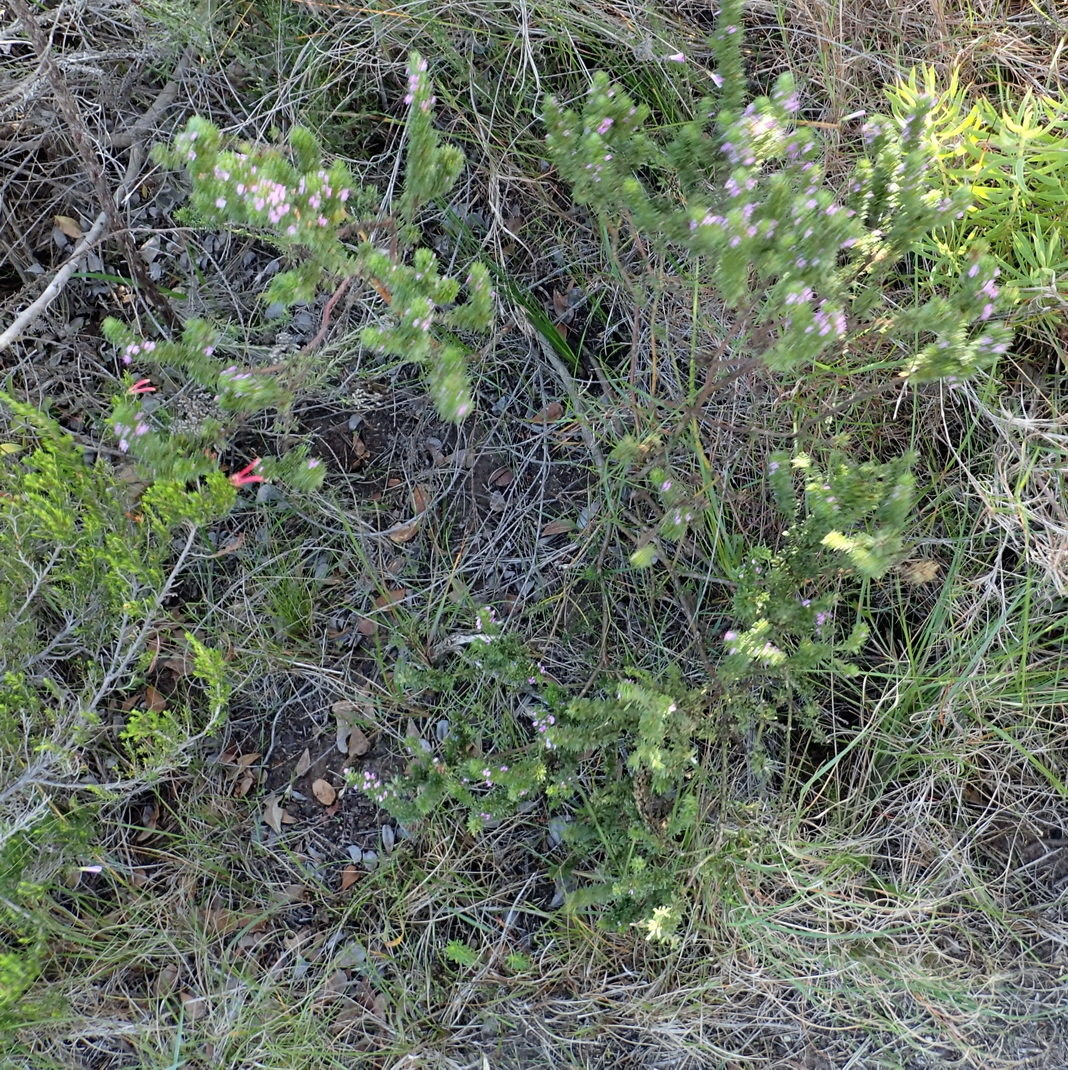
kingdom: Plantae
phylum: Tracheophyta
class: Magnoliopsida
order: Fabales
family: Polygalaceae
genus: Muraltia
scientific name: Muraltia alopecuroides
